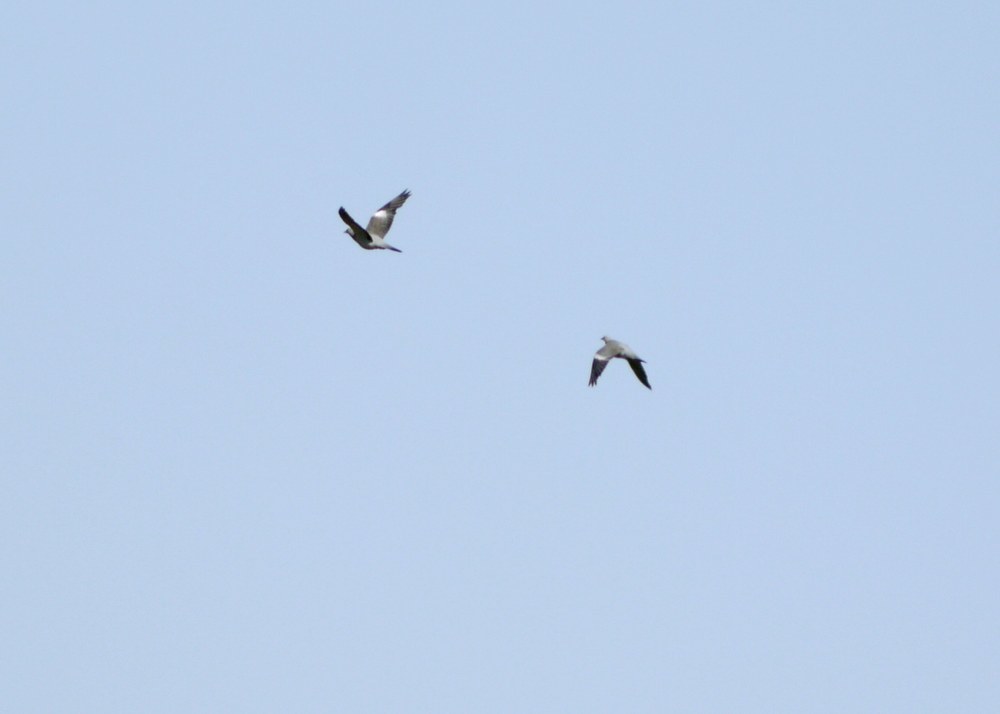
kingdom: Animalia
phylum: Chordata
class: Aves
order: Columbiformes
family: Columbidae
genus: Columba
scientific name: Columba palumbus
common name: Common wood pigeon
